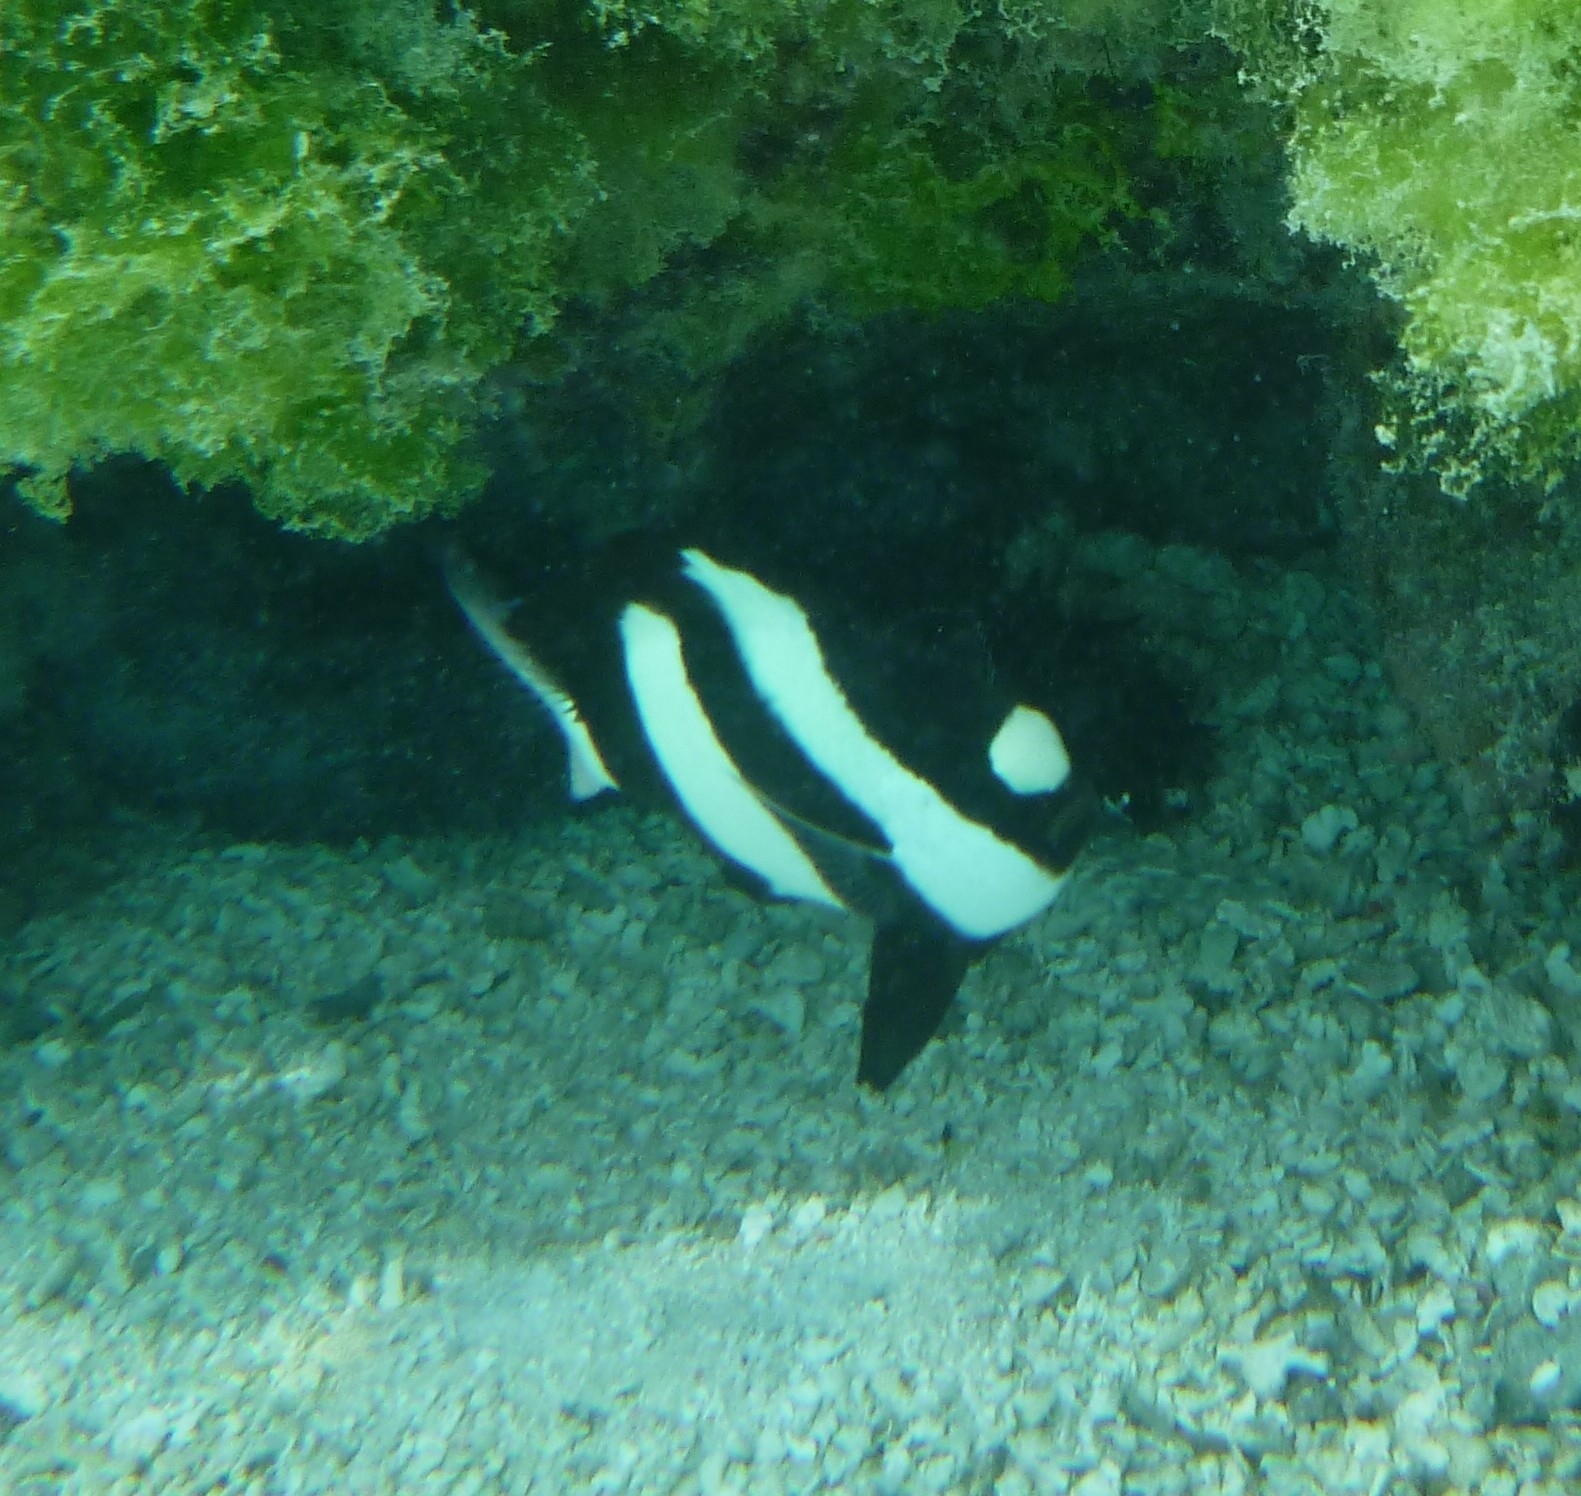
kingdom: Animalia
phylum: Chordata
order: Perciformes
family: Pomacentridae
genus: Dascyllus
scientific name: Dascyllus aruanus
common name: Humbug dascyllus
